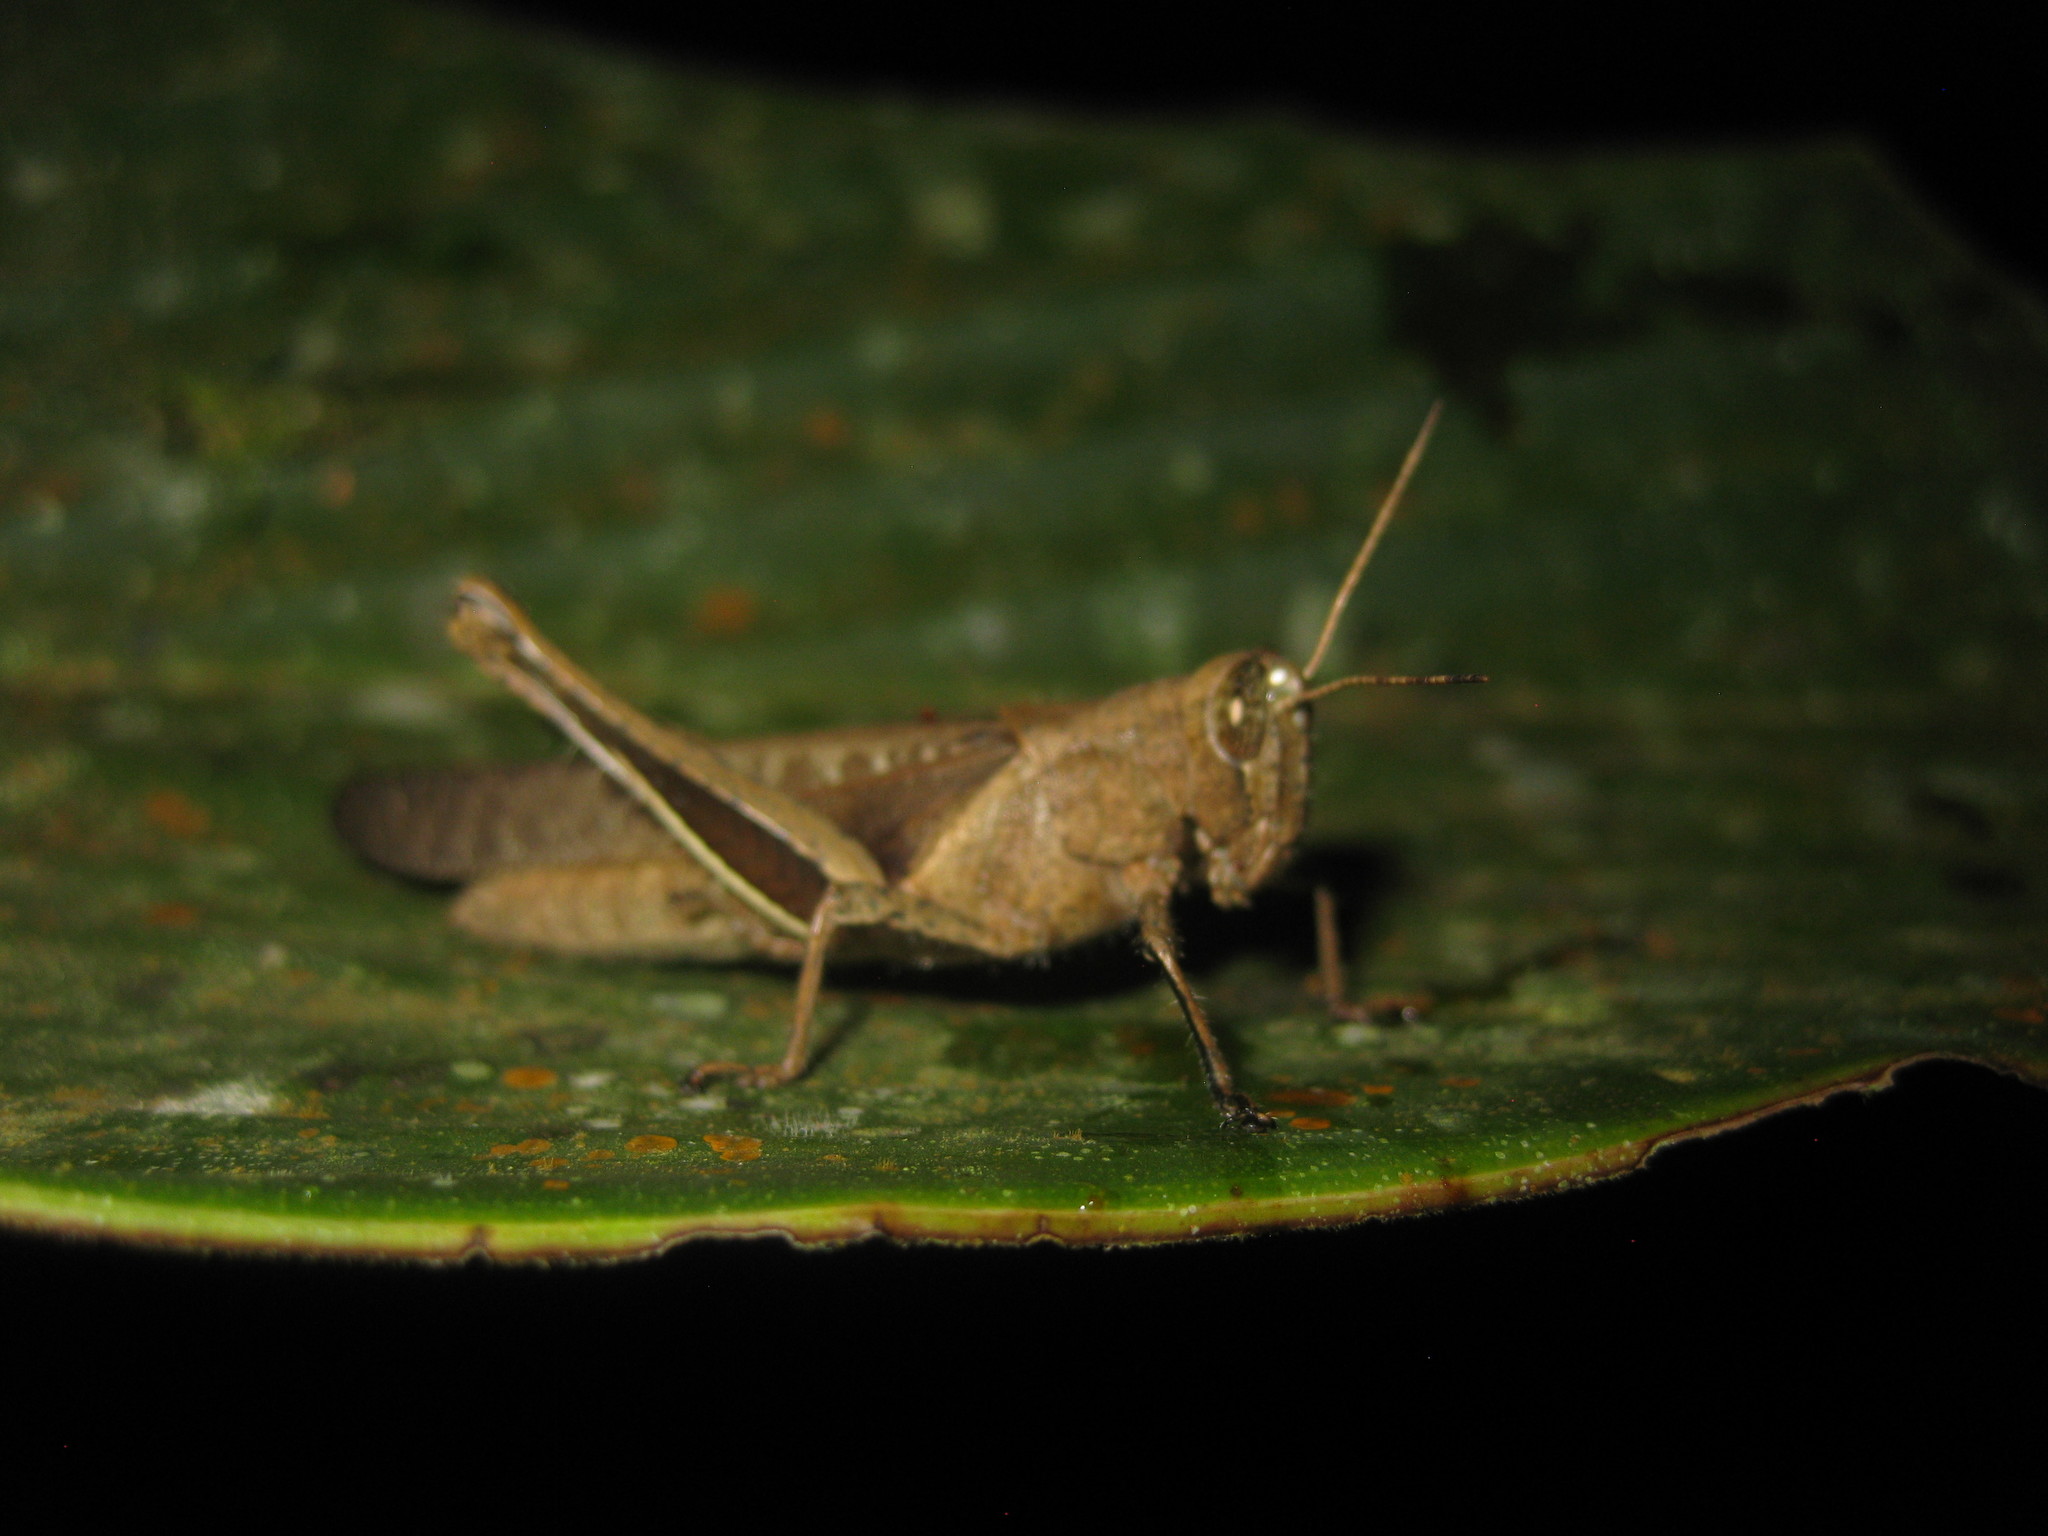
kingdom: Animalia
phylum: Arthropoda
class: Insecta
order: Orthoptera
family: Acrididae
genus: Abracris
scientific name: Abracris flavolineata
